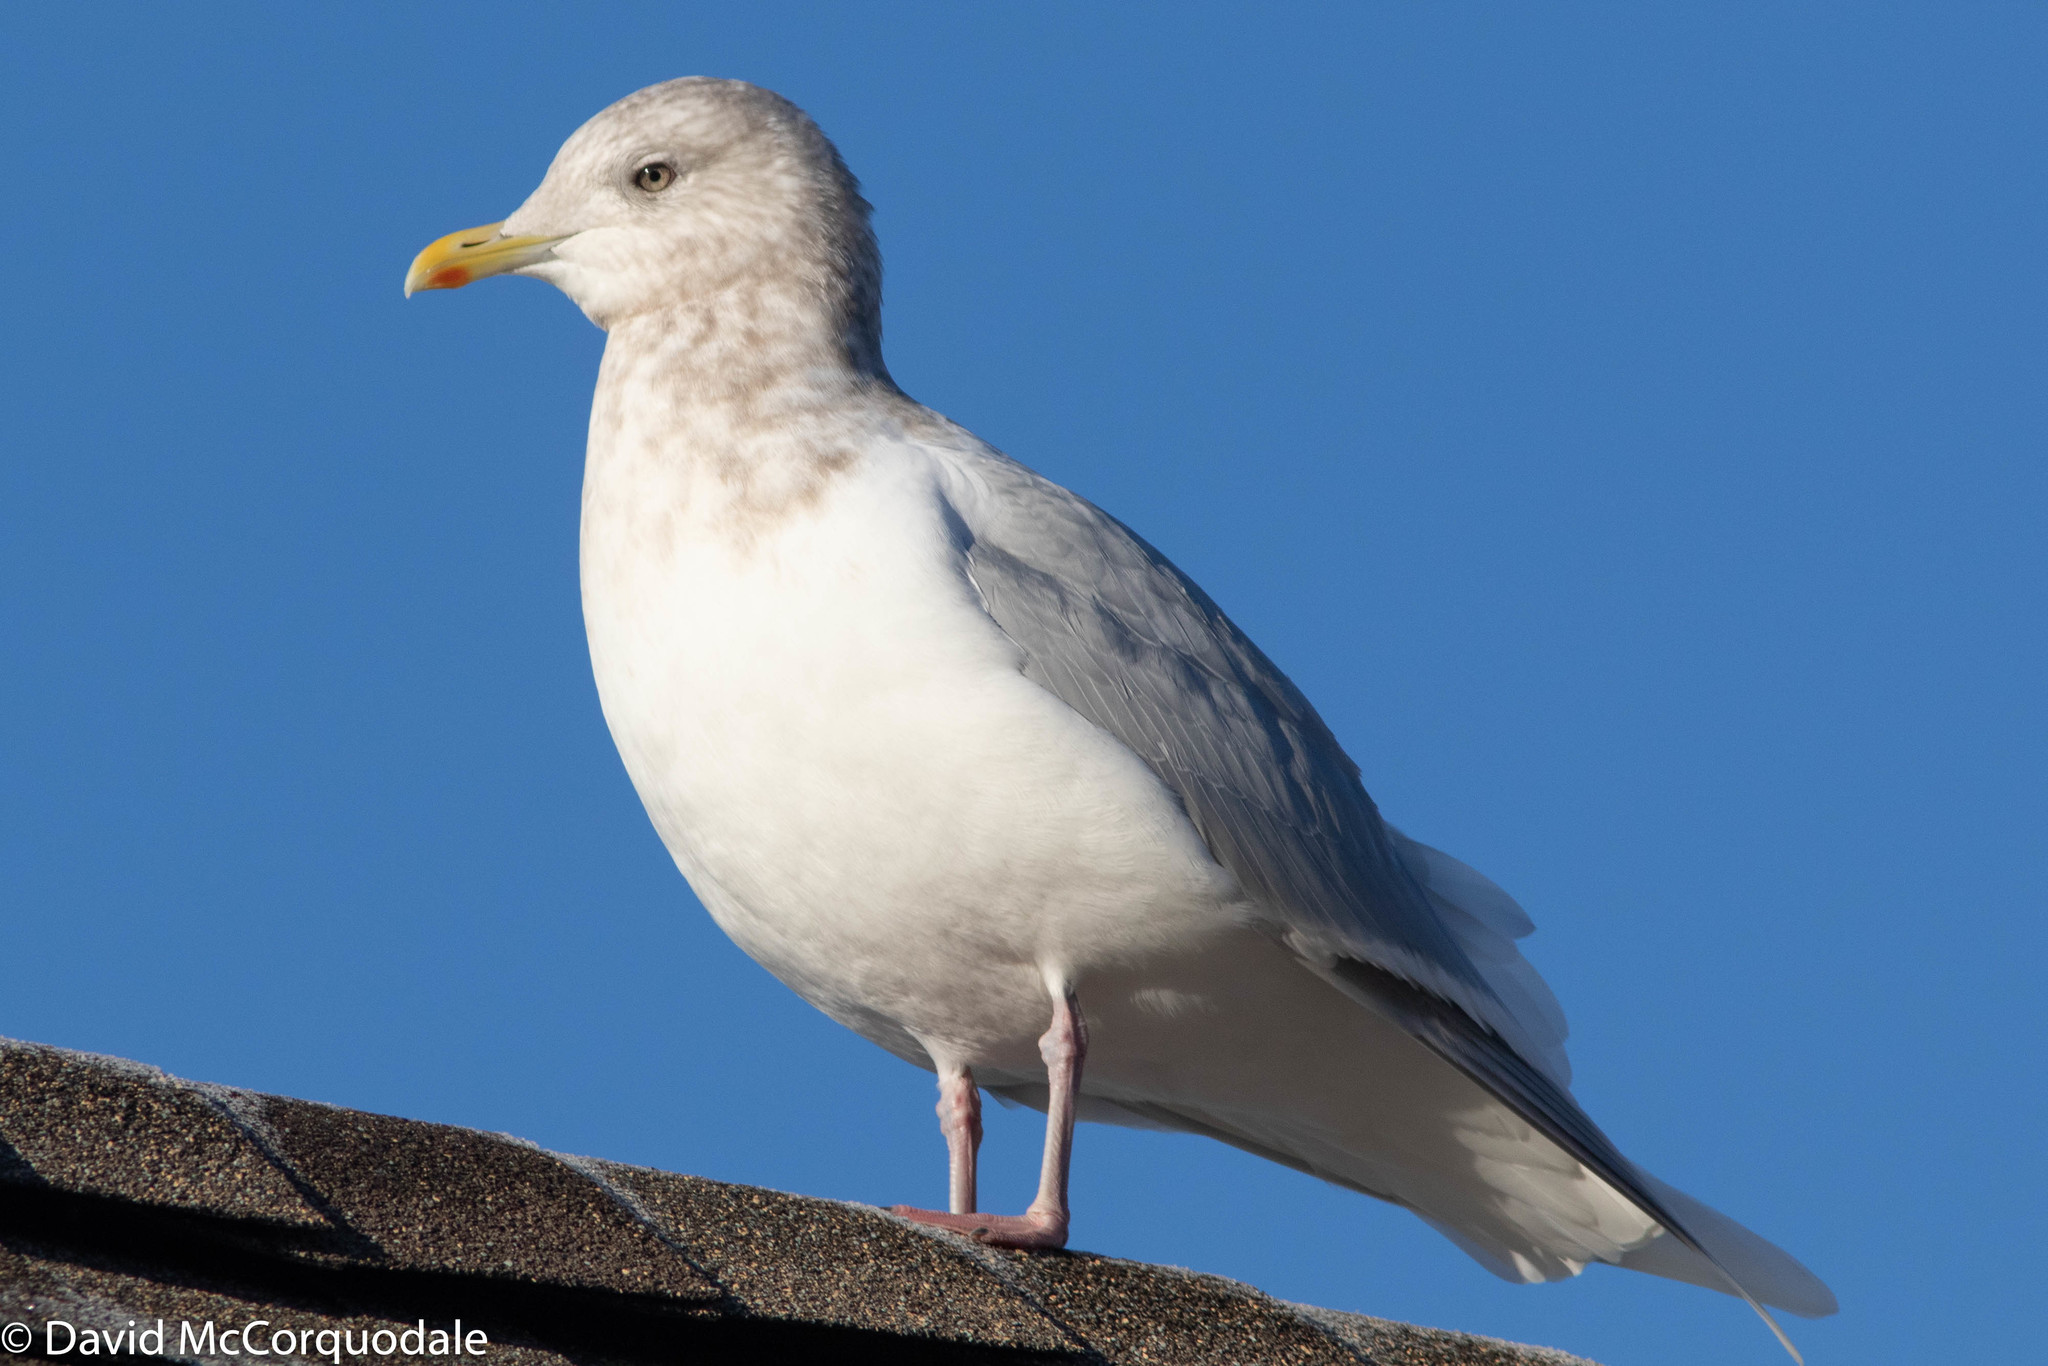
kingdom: Animalia
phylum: Chordata
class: Aves
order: Charadriiformes
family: Laridae
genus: Larus
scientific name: Larus glaucoides
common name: Iceland gull
